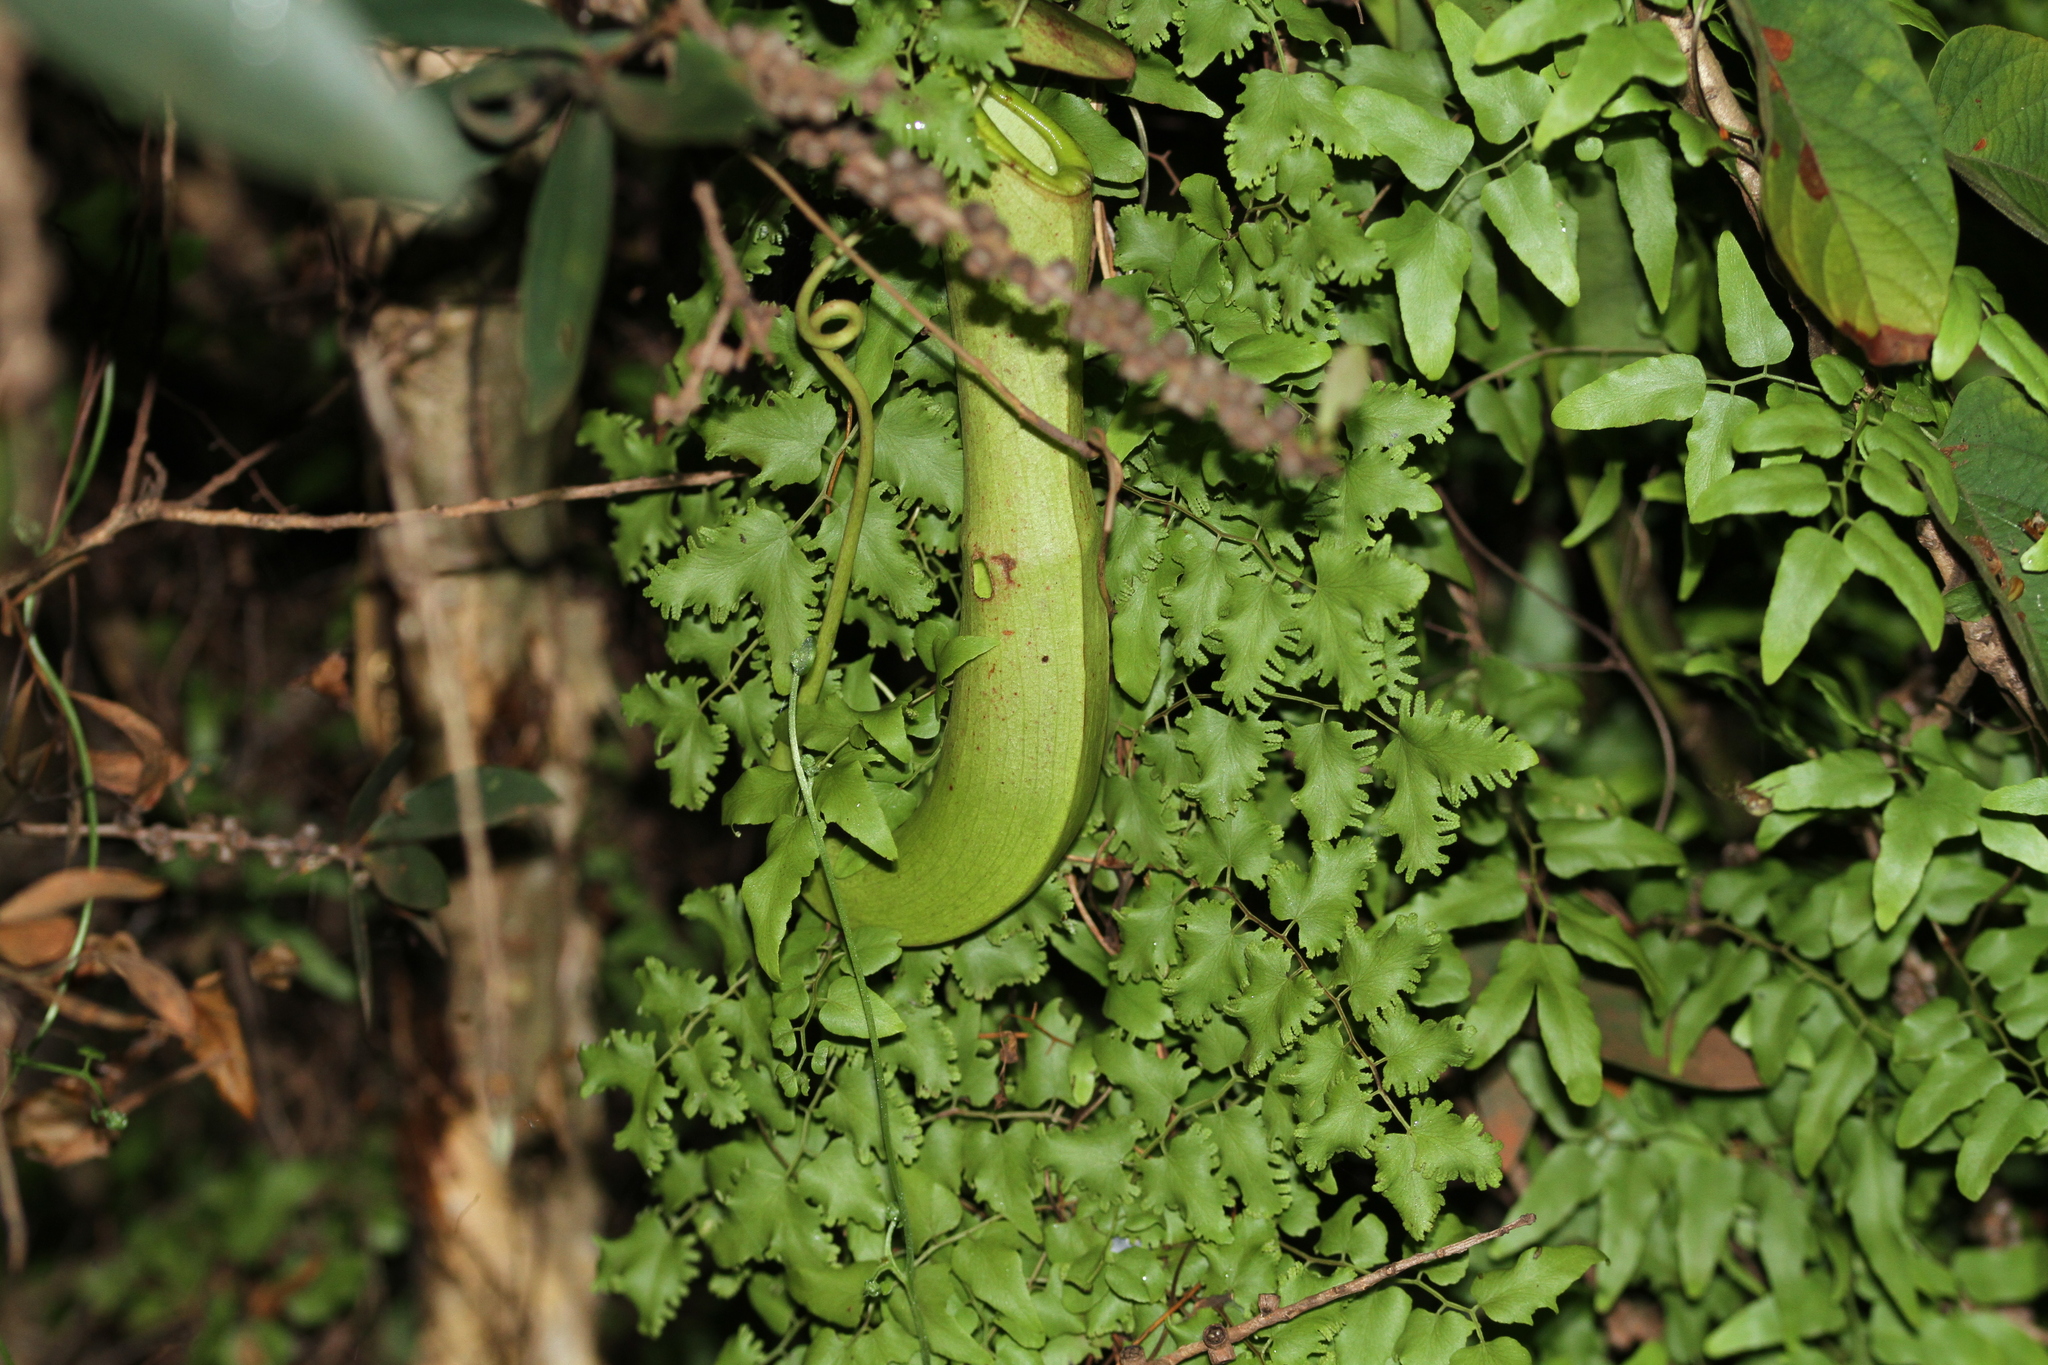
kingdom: Plantae
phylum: Tracheophyta
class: Magnoliopsida
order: Caryophyllales
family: Nepenthaceae
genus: Nepenthes
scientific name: Nepenthes mirabilis
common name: Tropical pitcherplant
